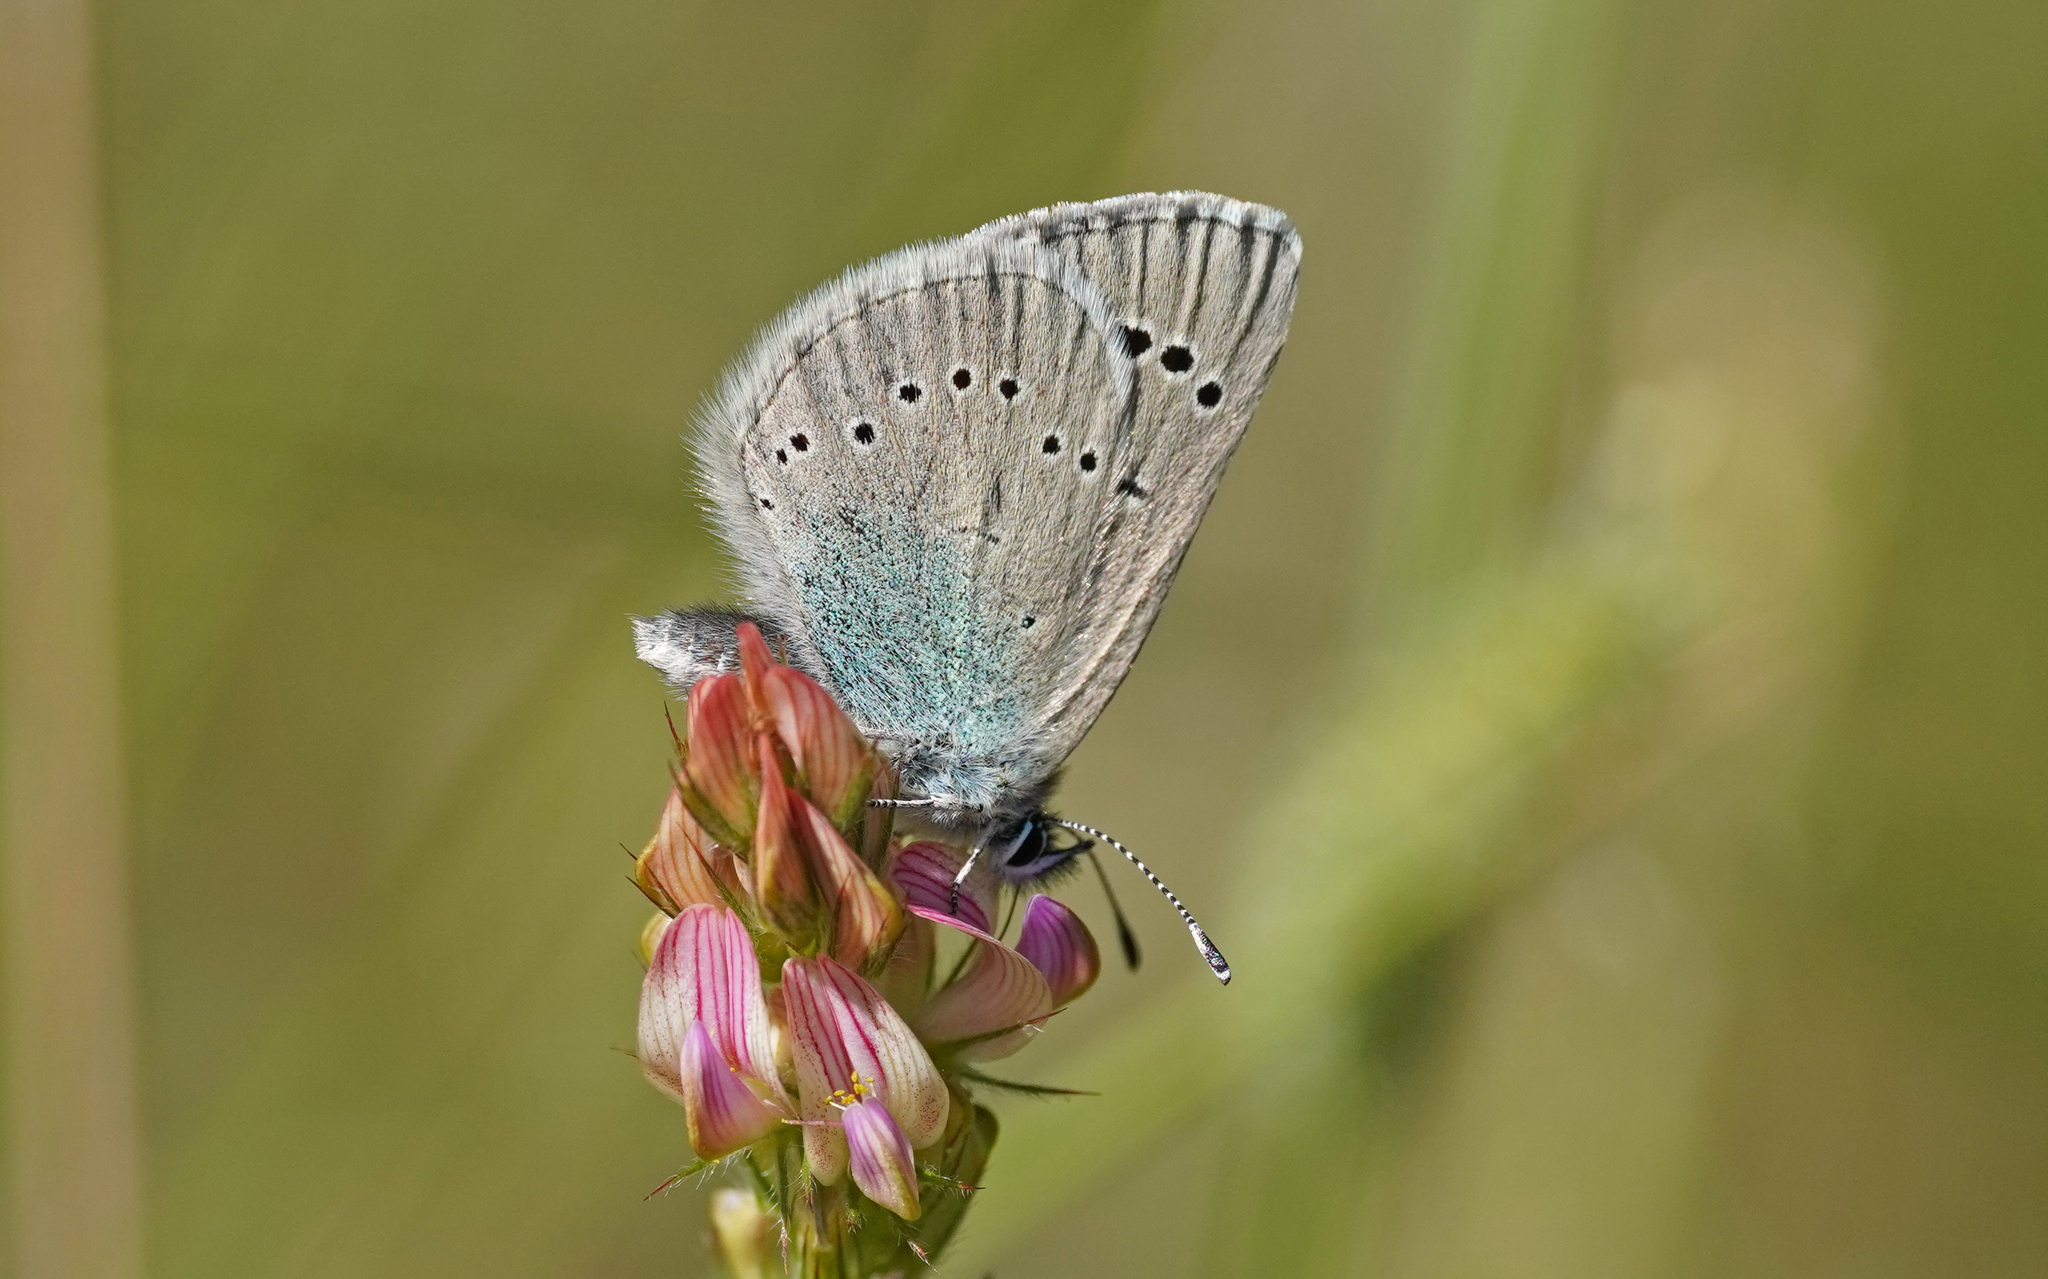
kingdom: Animalia
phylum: Arthropoda
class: Insecta
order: Lepidoptera
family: Lycaenidae
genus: Glaucopsyche
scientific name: Glaucopsyche alexis
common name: Green-underside blue
